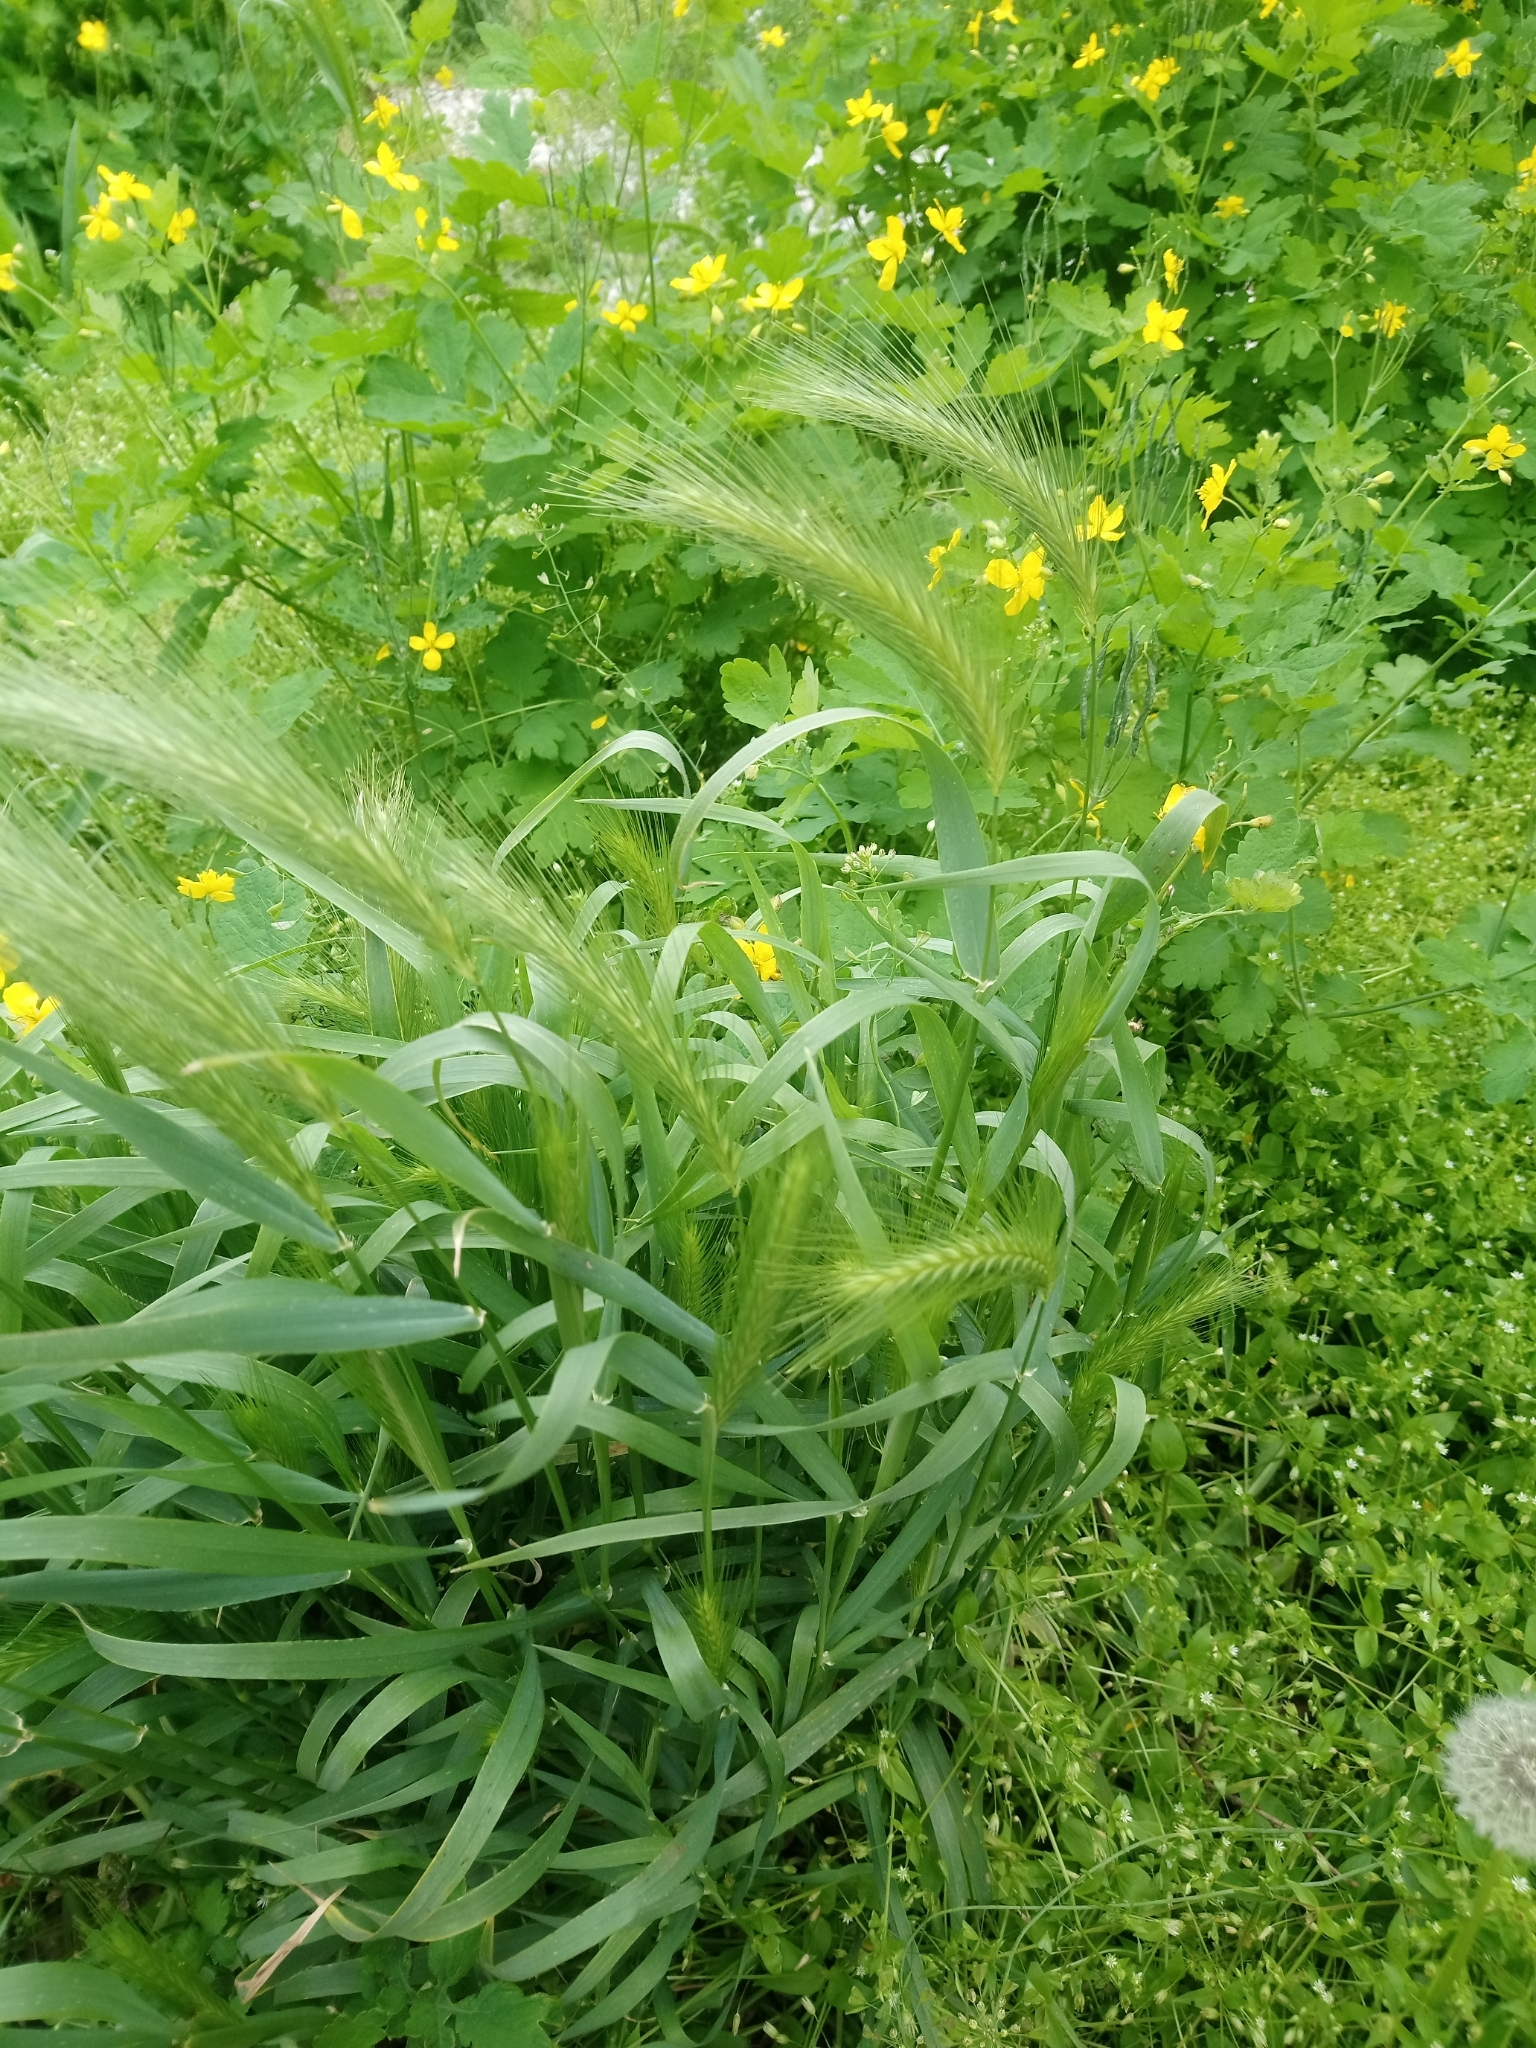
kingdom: Plantae
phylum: Tracheophyta
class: Liliopsida
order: Poales
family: Poaceae
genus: Hordeum
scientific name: Hordeum murinum
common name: Wall barley
